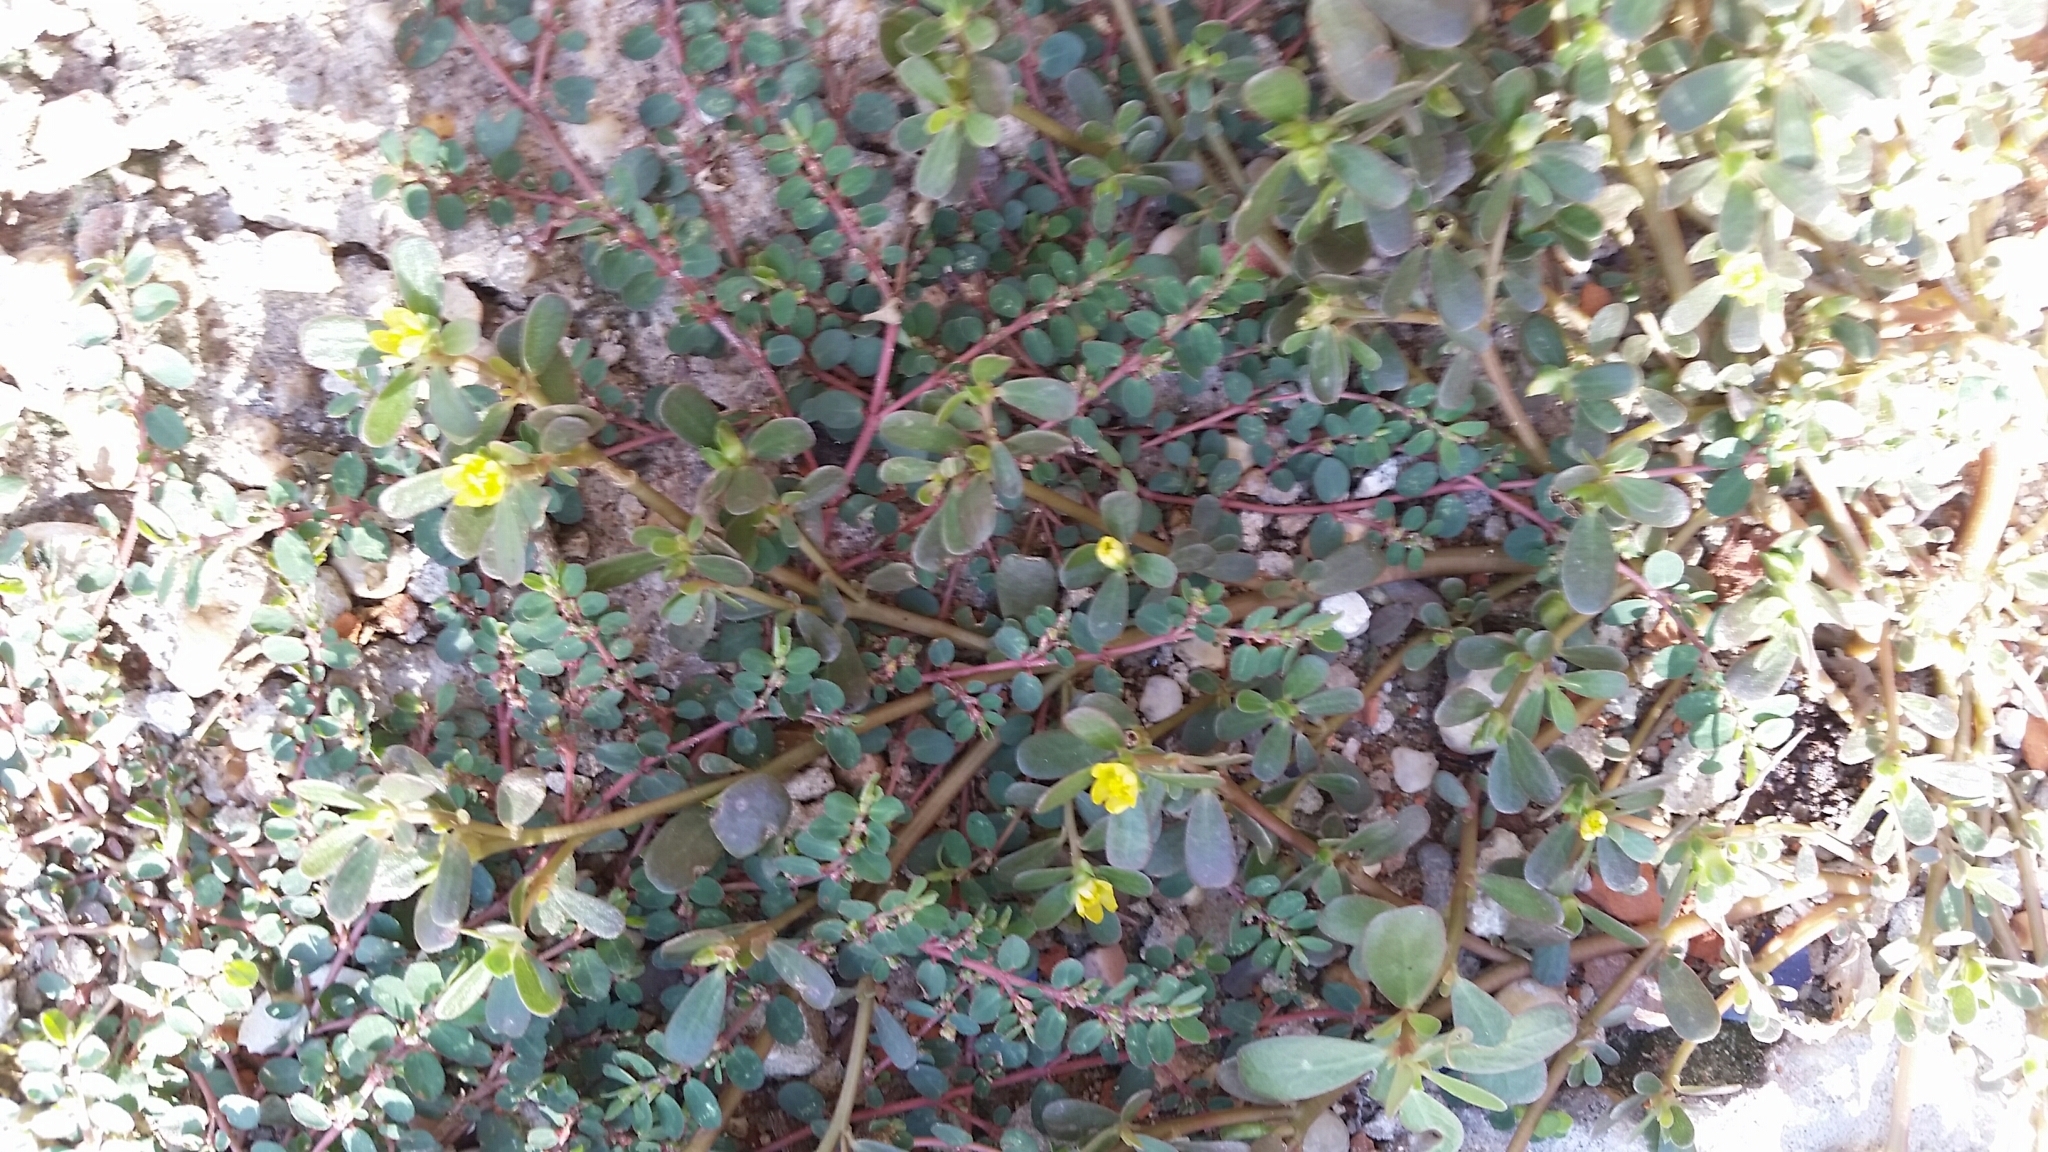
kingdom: Plantae
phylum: Tracheophyta
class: Magnoliopsida
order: Caryophyllales
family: Portulacaceae
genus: Portulaca
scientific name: Portulaca oleracea
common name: Common purslane
